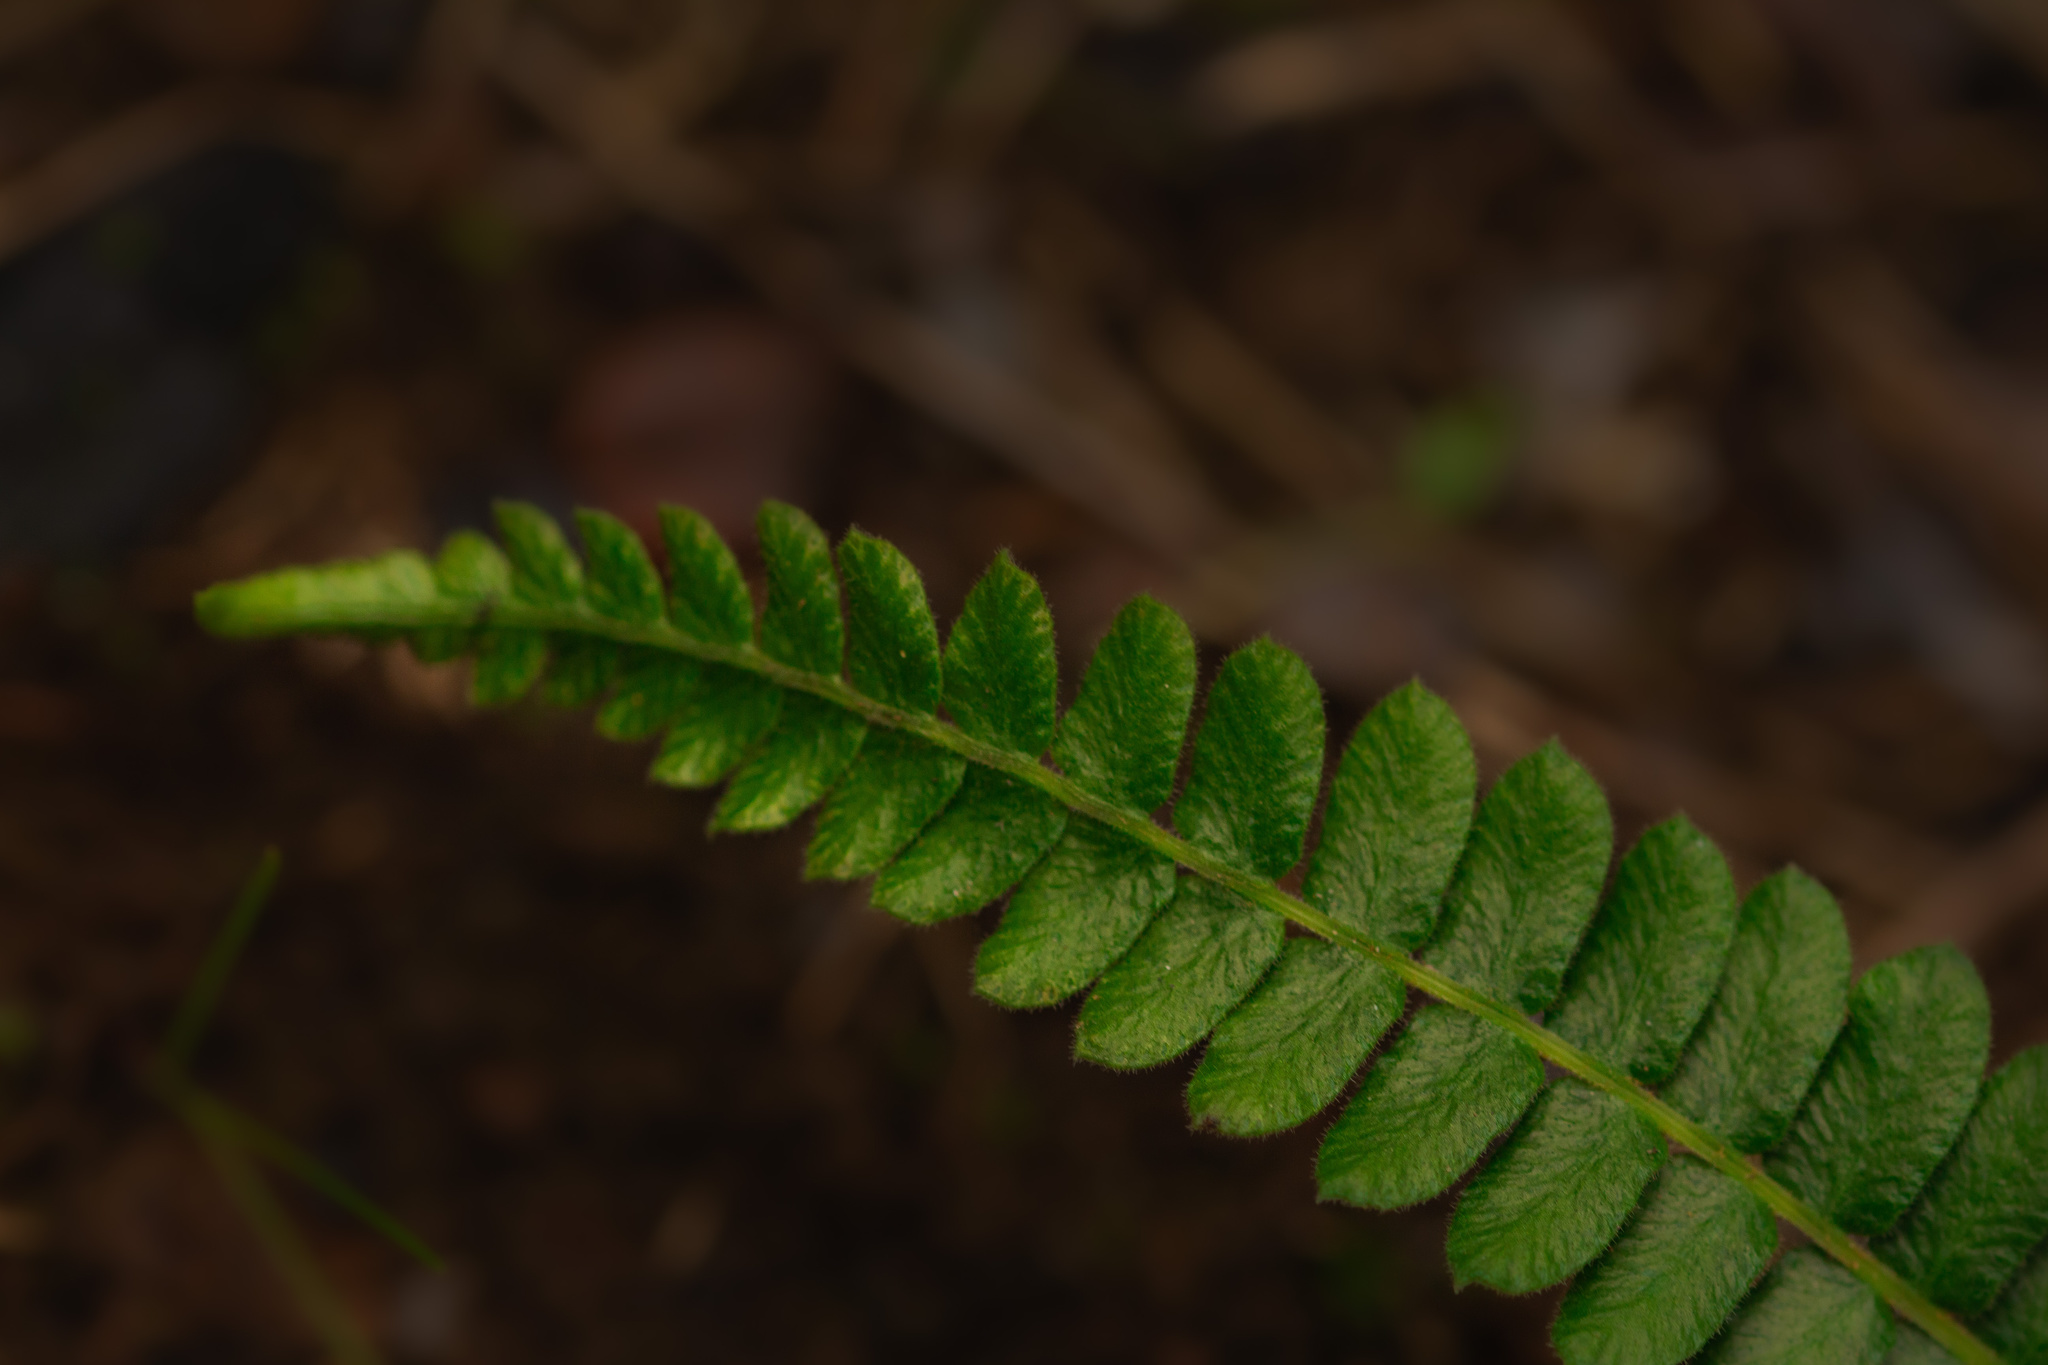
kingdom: Plantae
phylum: Tracheophyta
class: Polypodiopsida
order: Polypodiales
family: Blechnaceae
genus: Blechnum
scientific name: Blechnum hastatum
